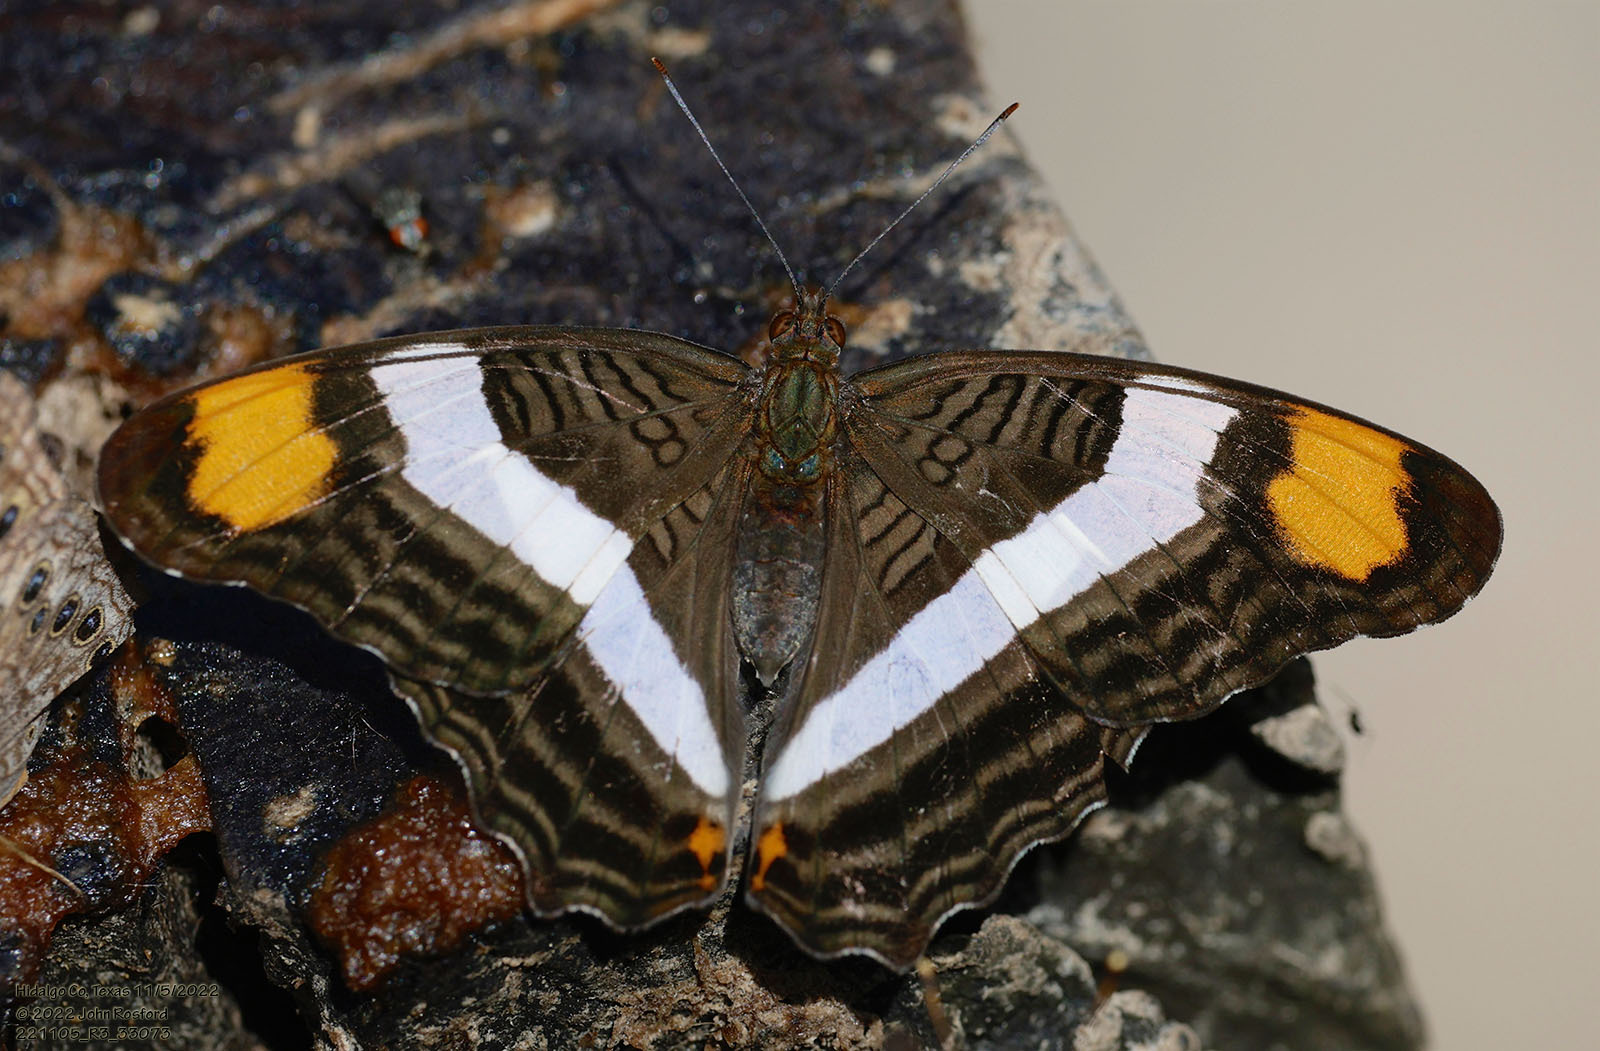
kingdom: Animalia
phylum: Arthropoda
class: Insecta
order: Lepidoptera
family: Nymphalidae
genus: Limenitis
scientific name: Limenitis fessonia
